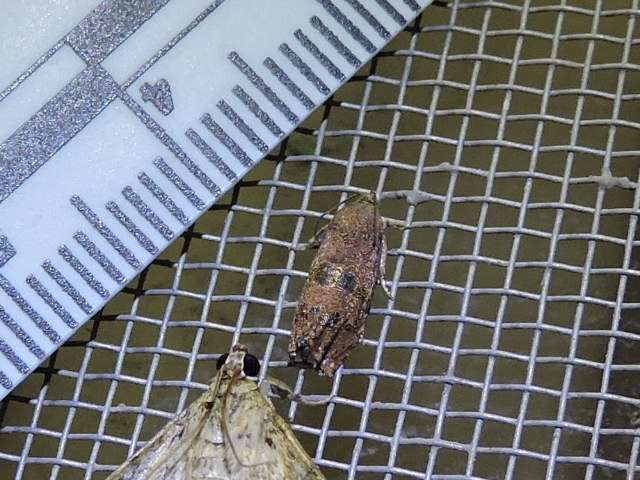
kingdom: Animalia
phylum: Arthropoda
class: Insecta
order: Lepidoptera
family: Tortricidae
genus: Cydia
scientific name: Cydia latiferreana
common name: Filbertworm moth
